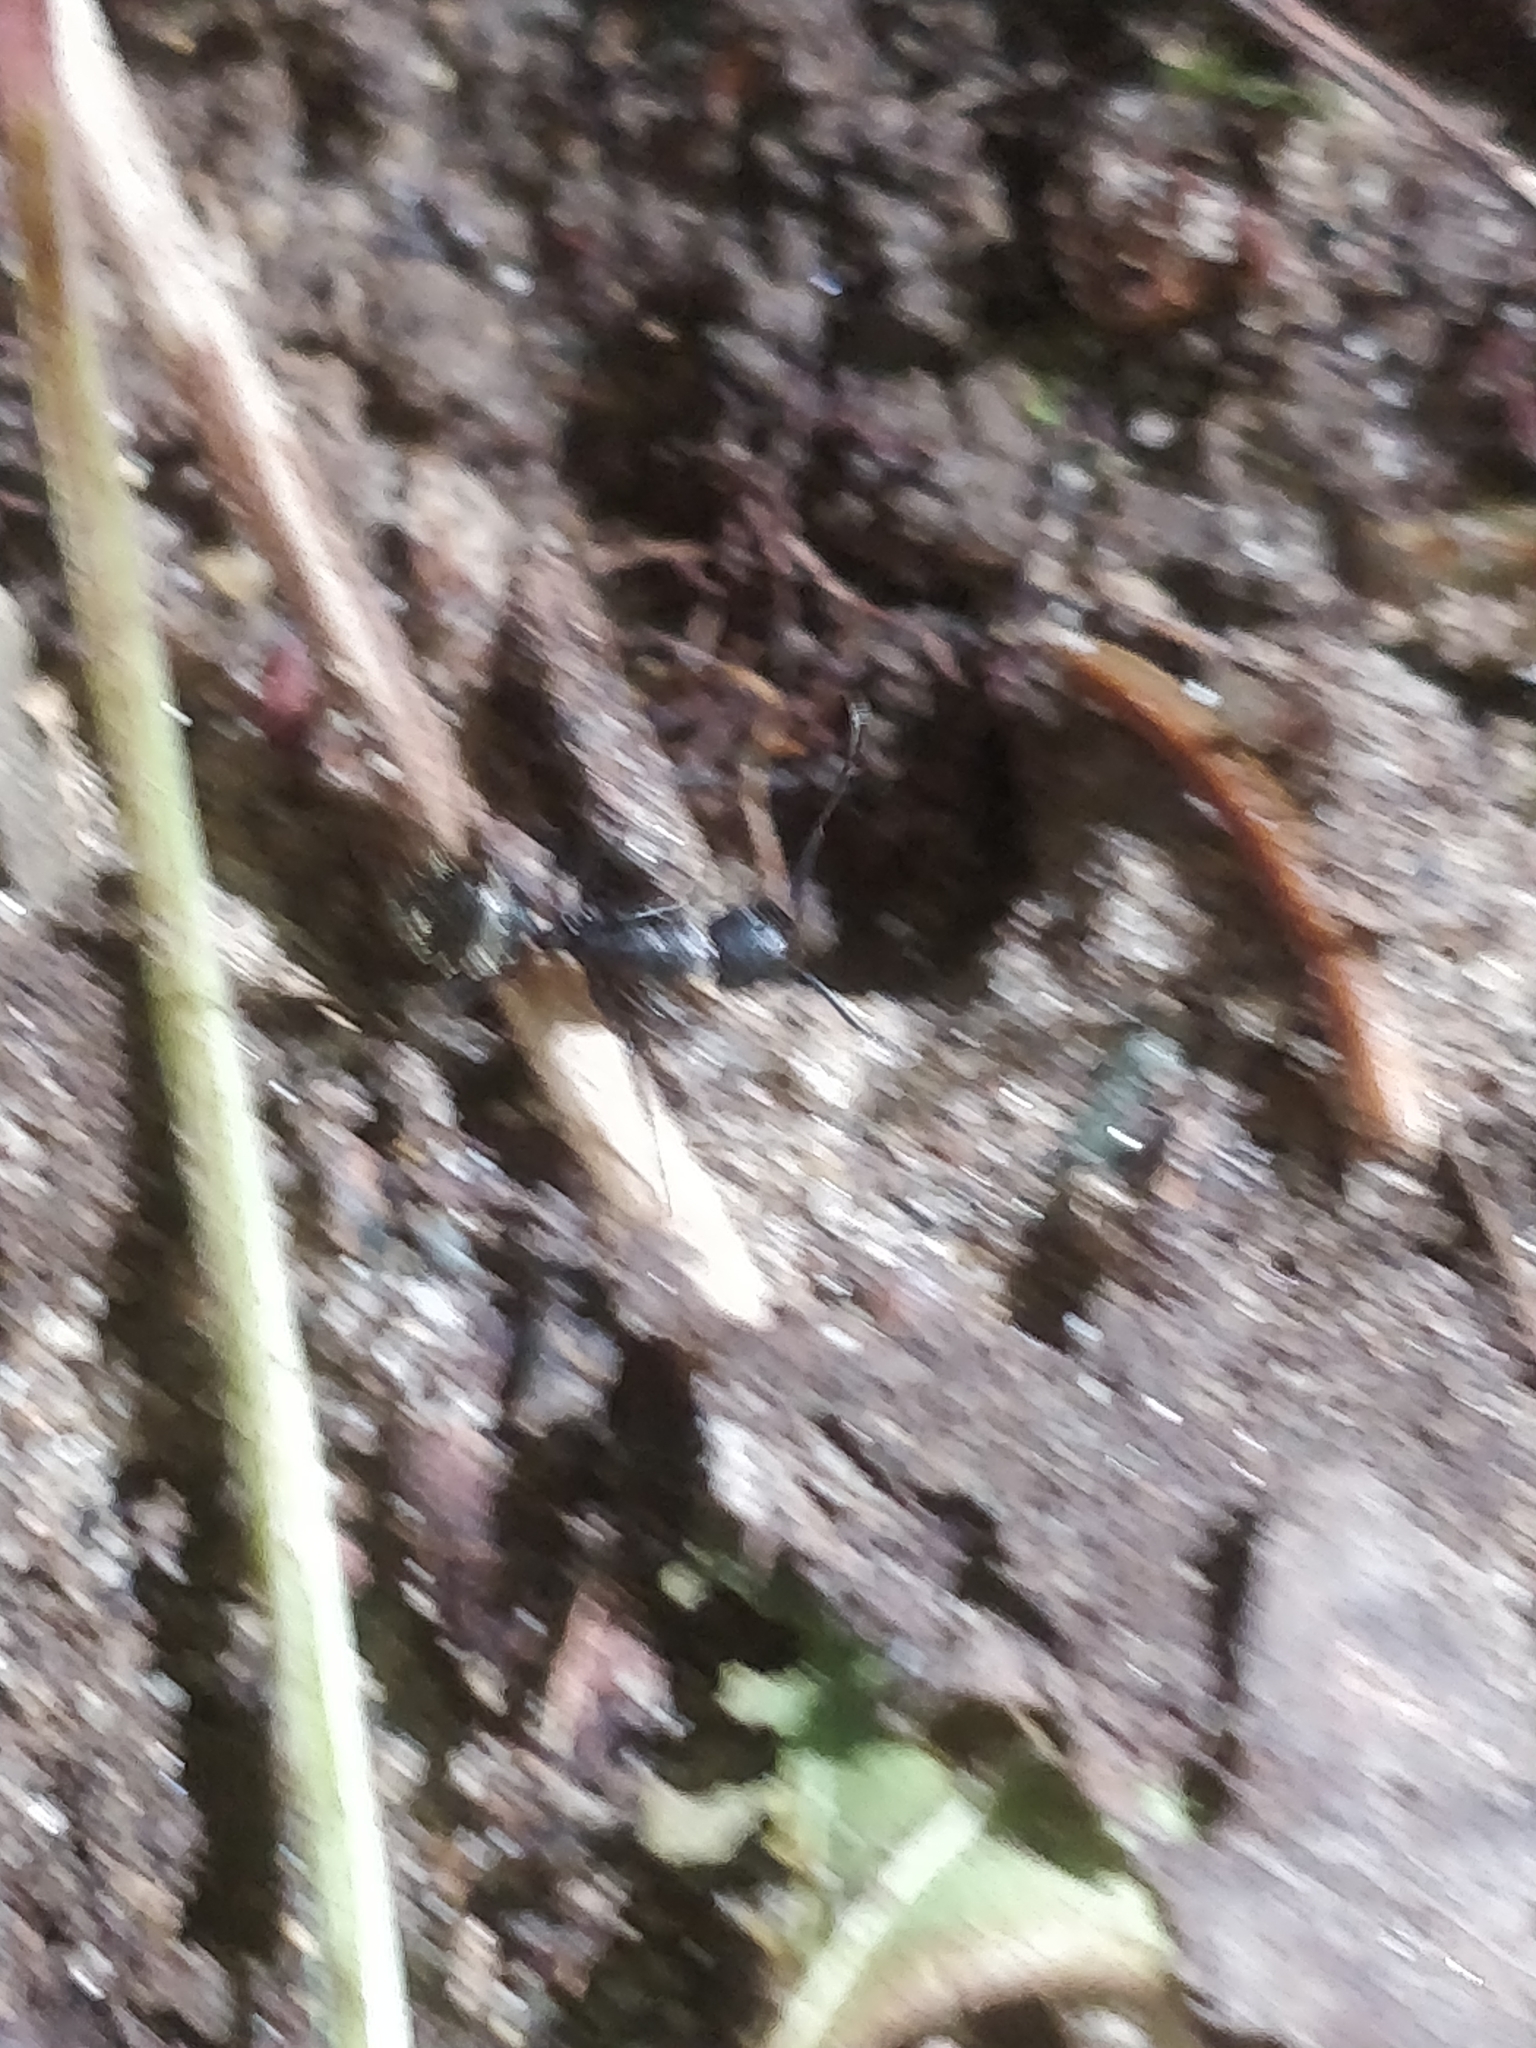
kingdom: Animalia
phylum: Arthropoda
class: Insecta
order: Hymenoptera
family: Formicidae
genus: Camponotus
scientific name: Camponotus pennsylvanicus
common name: Black carpenter ant
